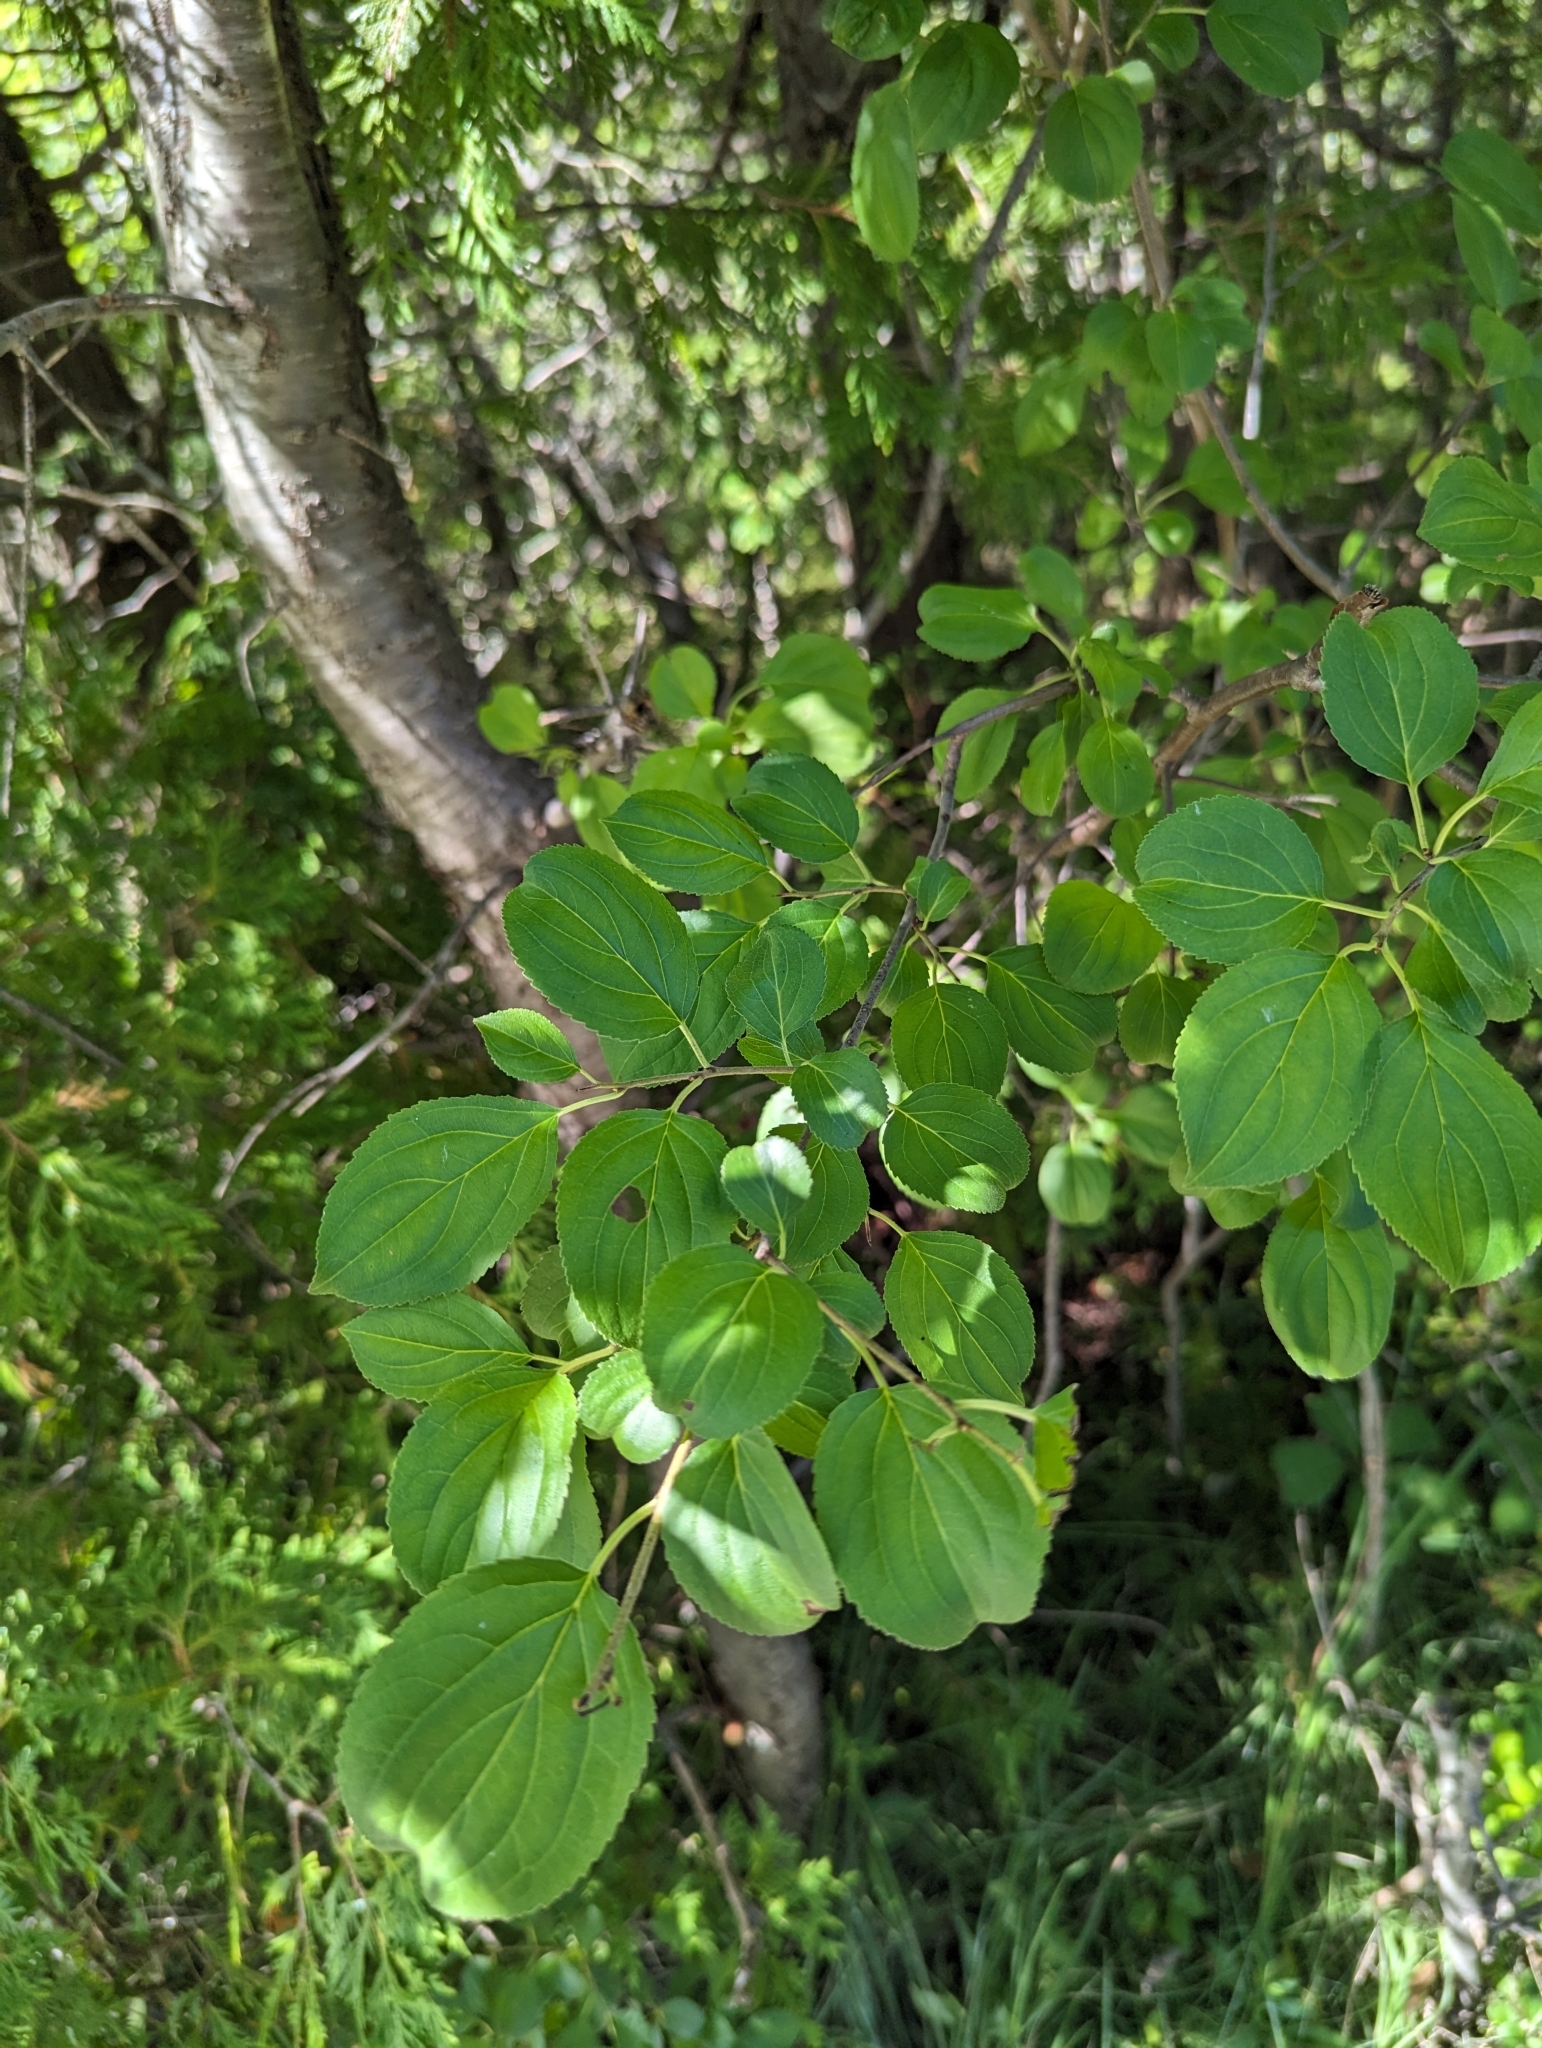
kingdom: Plantae
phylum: Tracheophyta
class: Magnoliopsida
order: Rosales
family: Rhamnaceae
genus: Rhamnus
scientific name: Rhamnus cathartica
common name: Common buckthorn
